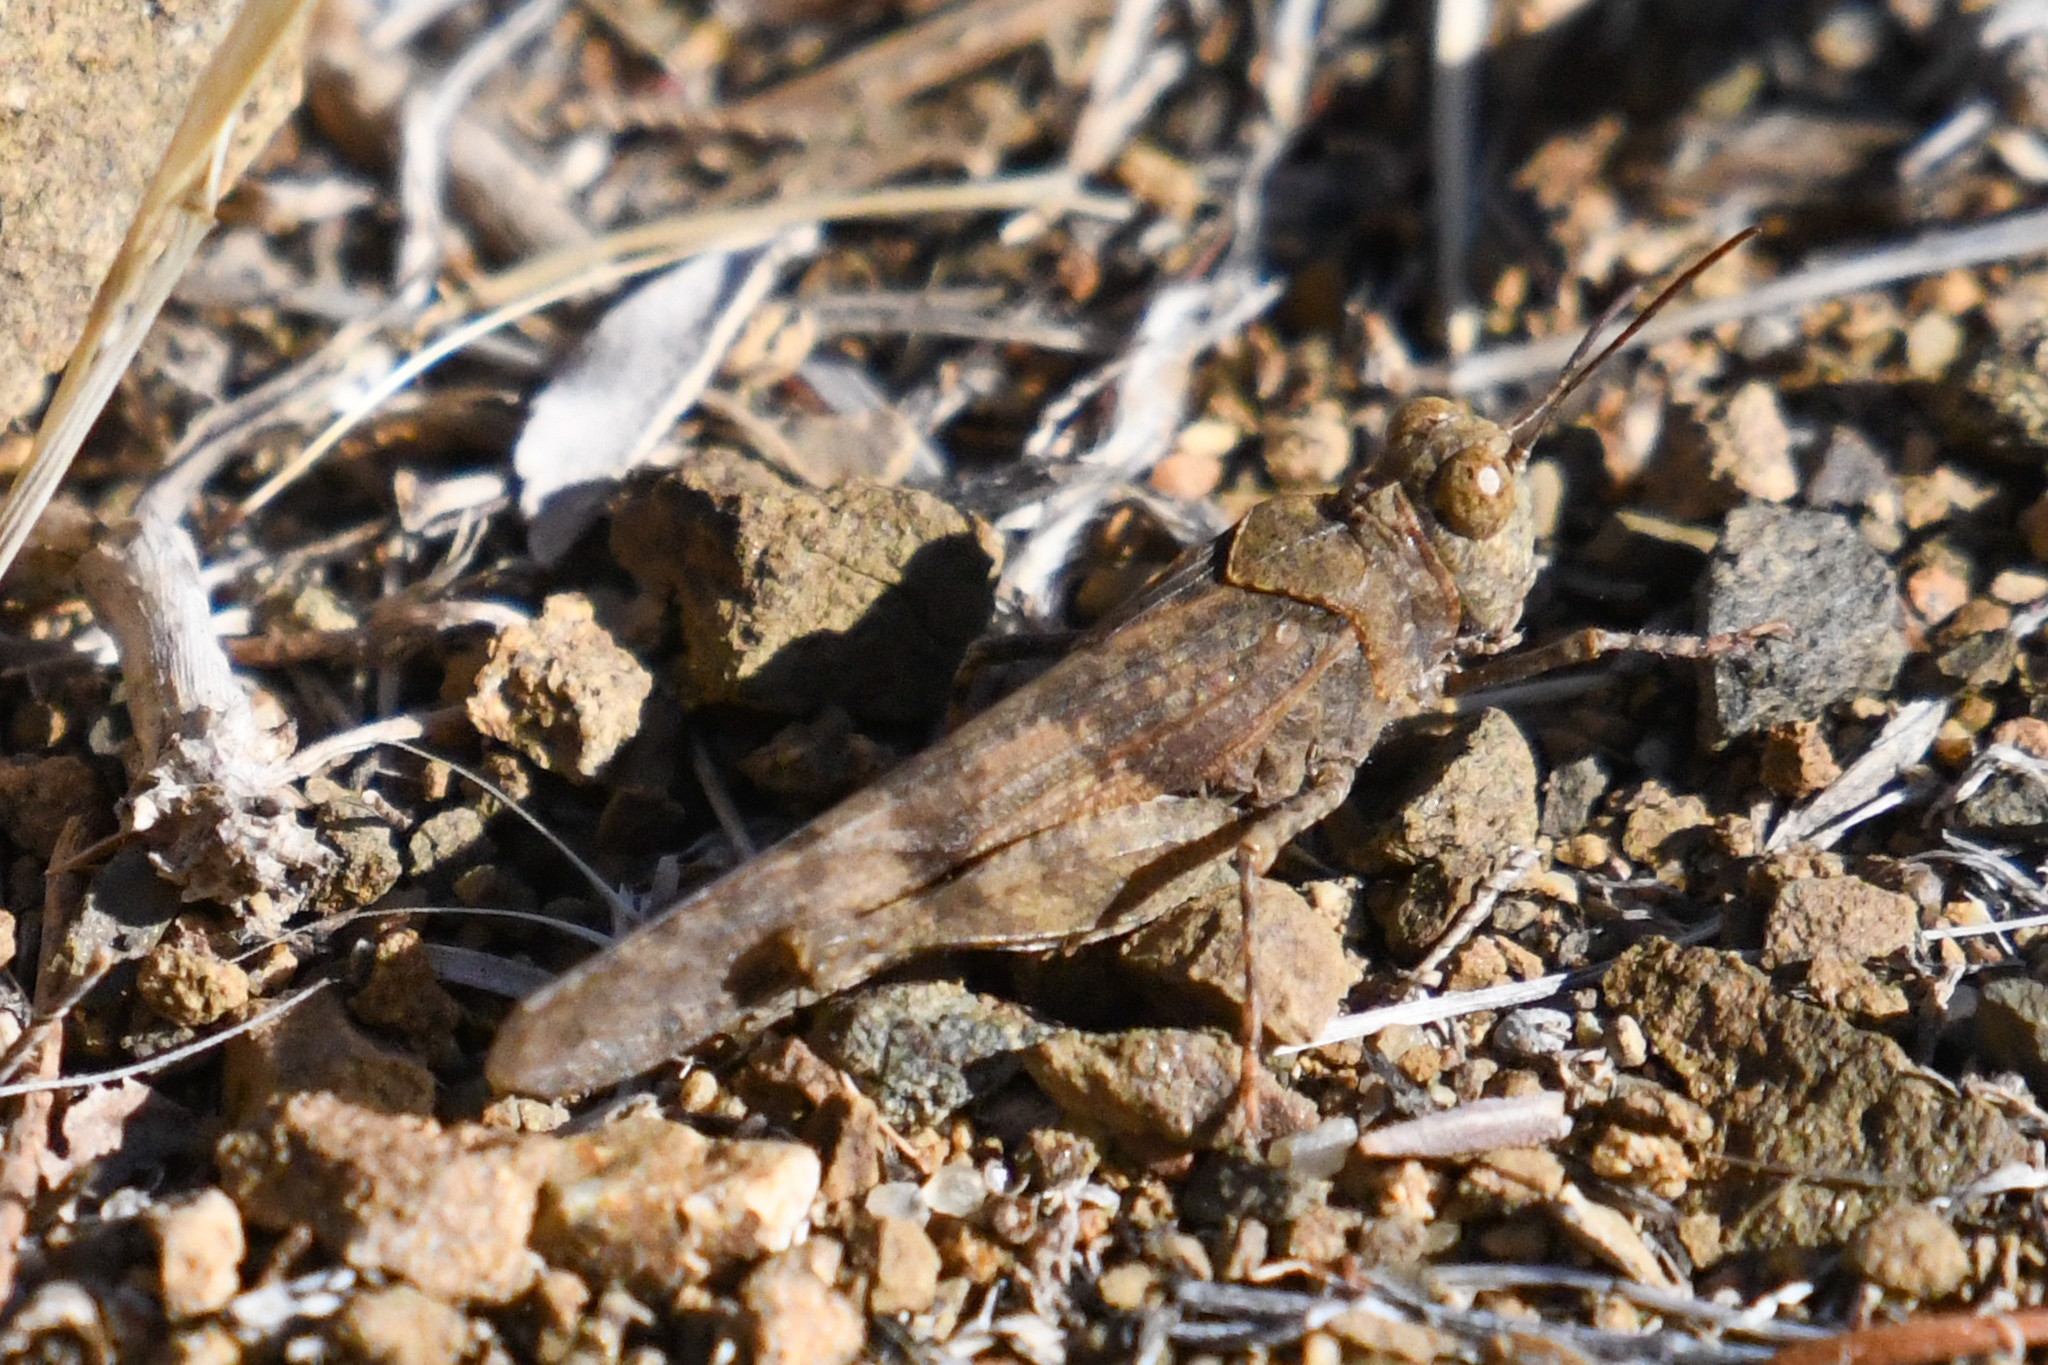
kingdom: Animalia
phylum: Arthropoda
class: Insecta
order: Orthoptera
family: Acrididae
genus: Trimerotropis
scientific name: Trimerotropis occidentalis
